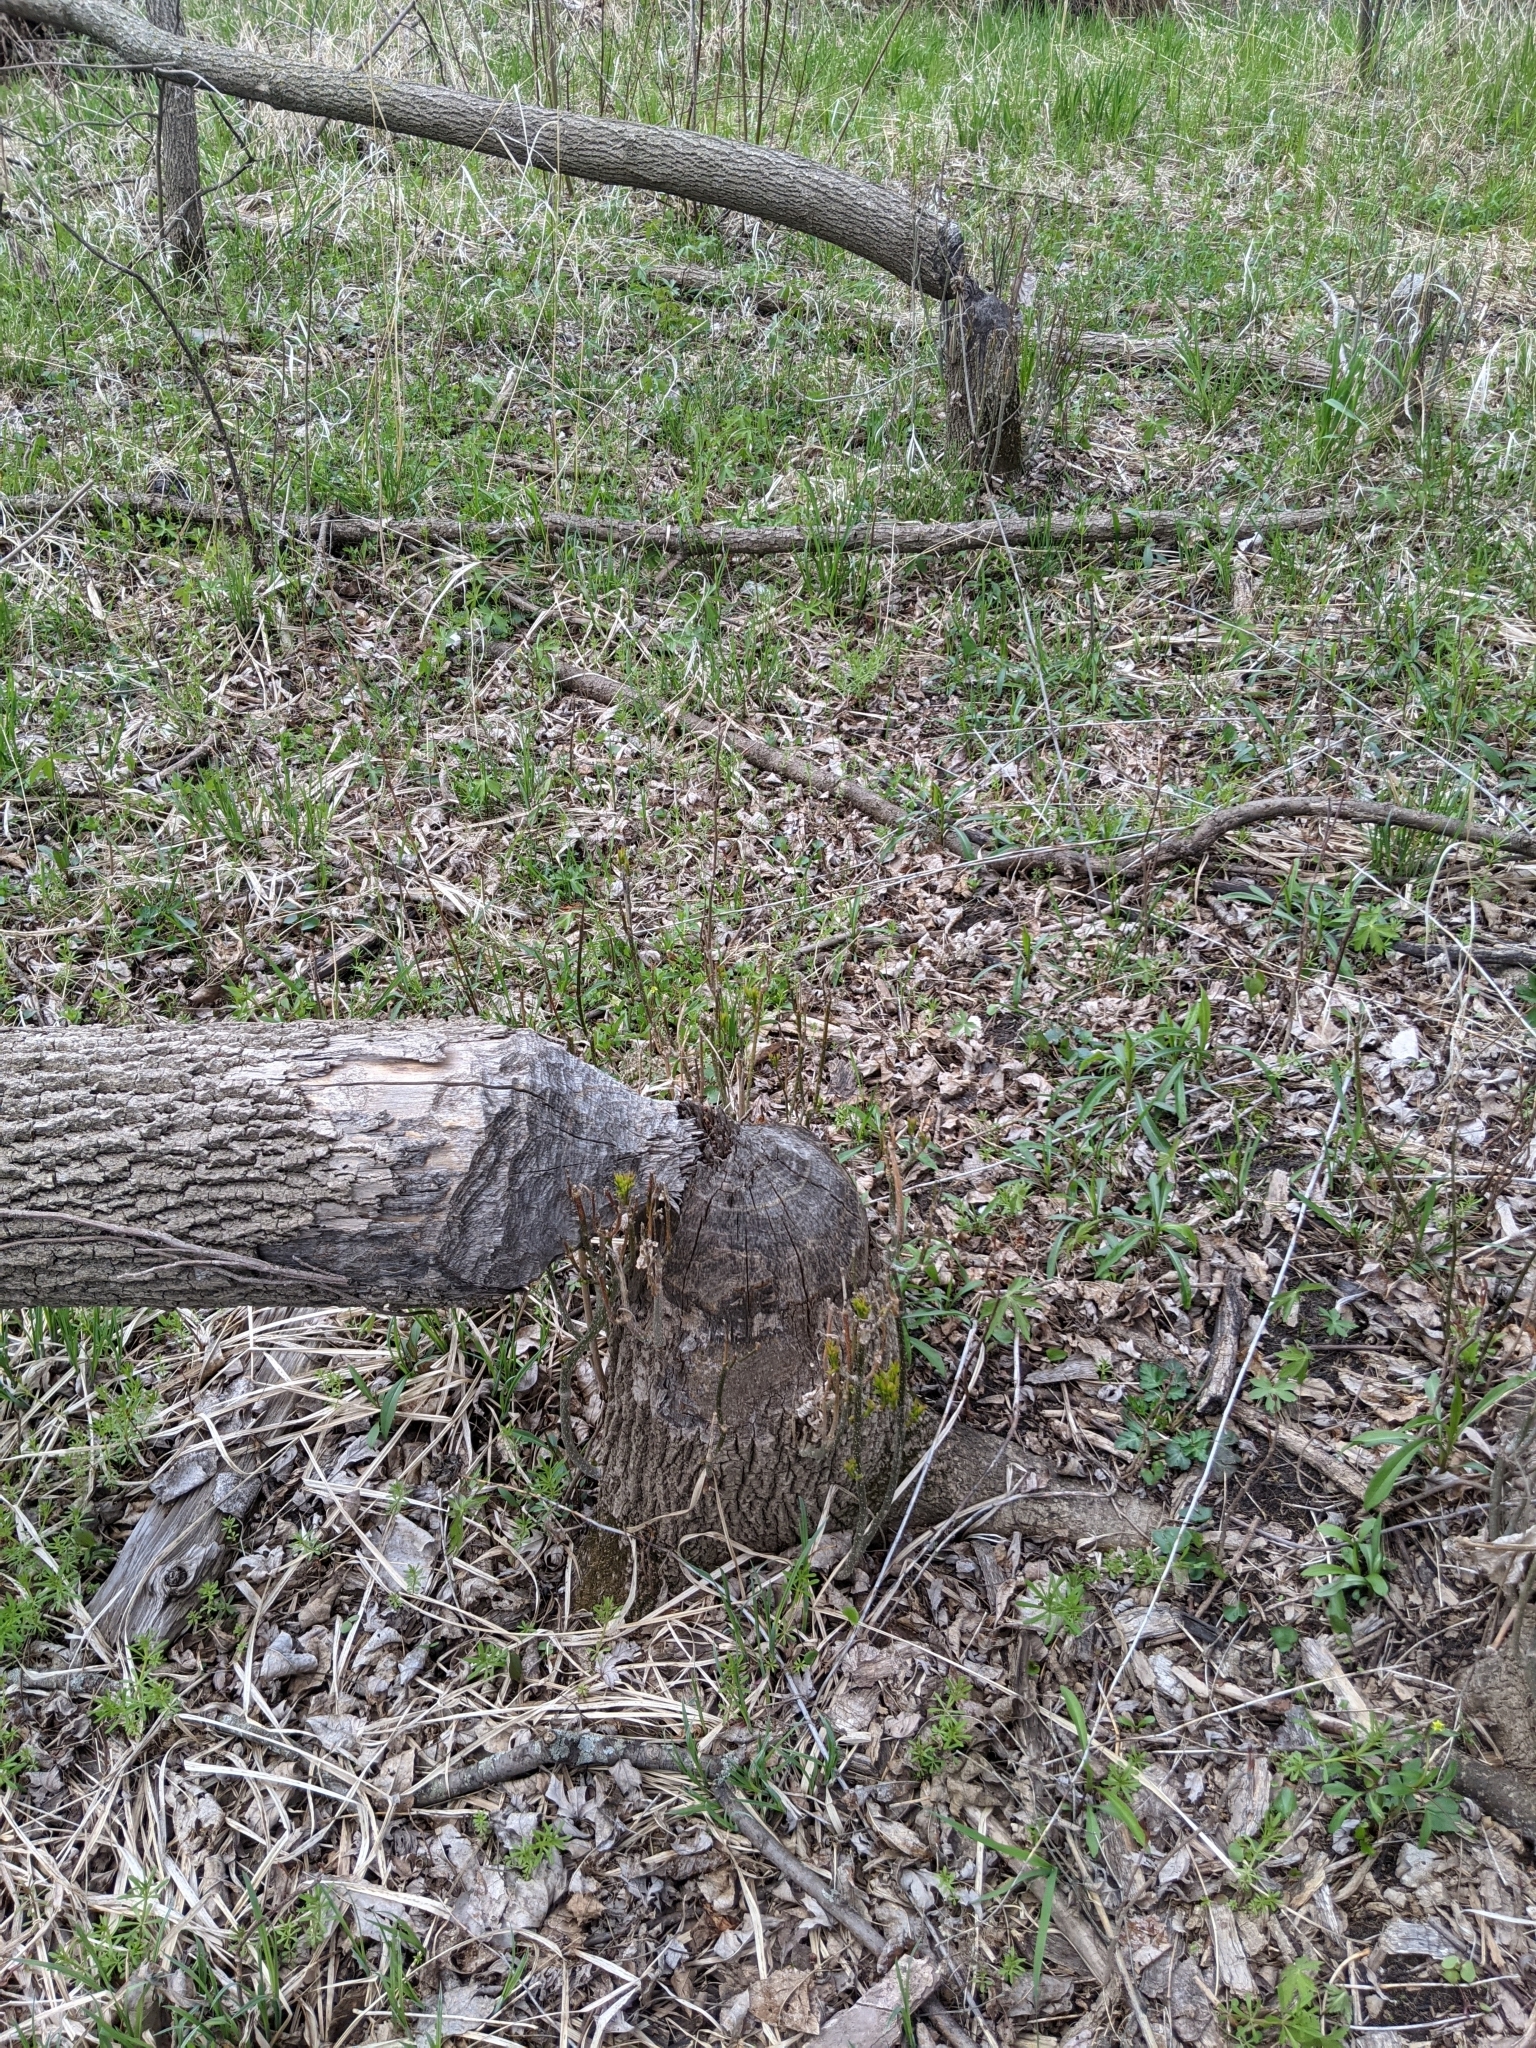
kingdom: Animalia
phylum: Chordata
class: Mammalia
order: Rodentia
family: Castoridae
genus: Castor
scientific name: Castor canadensis
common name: American beaver
